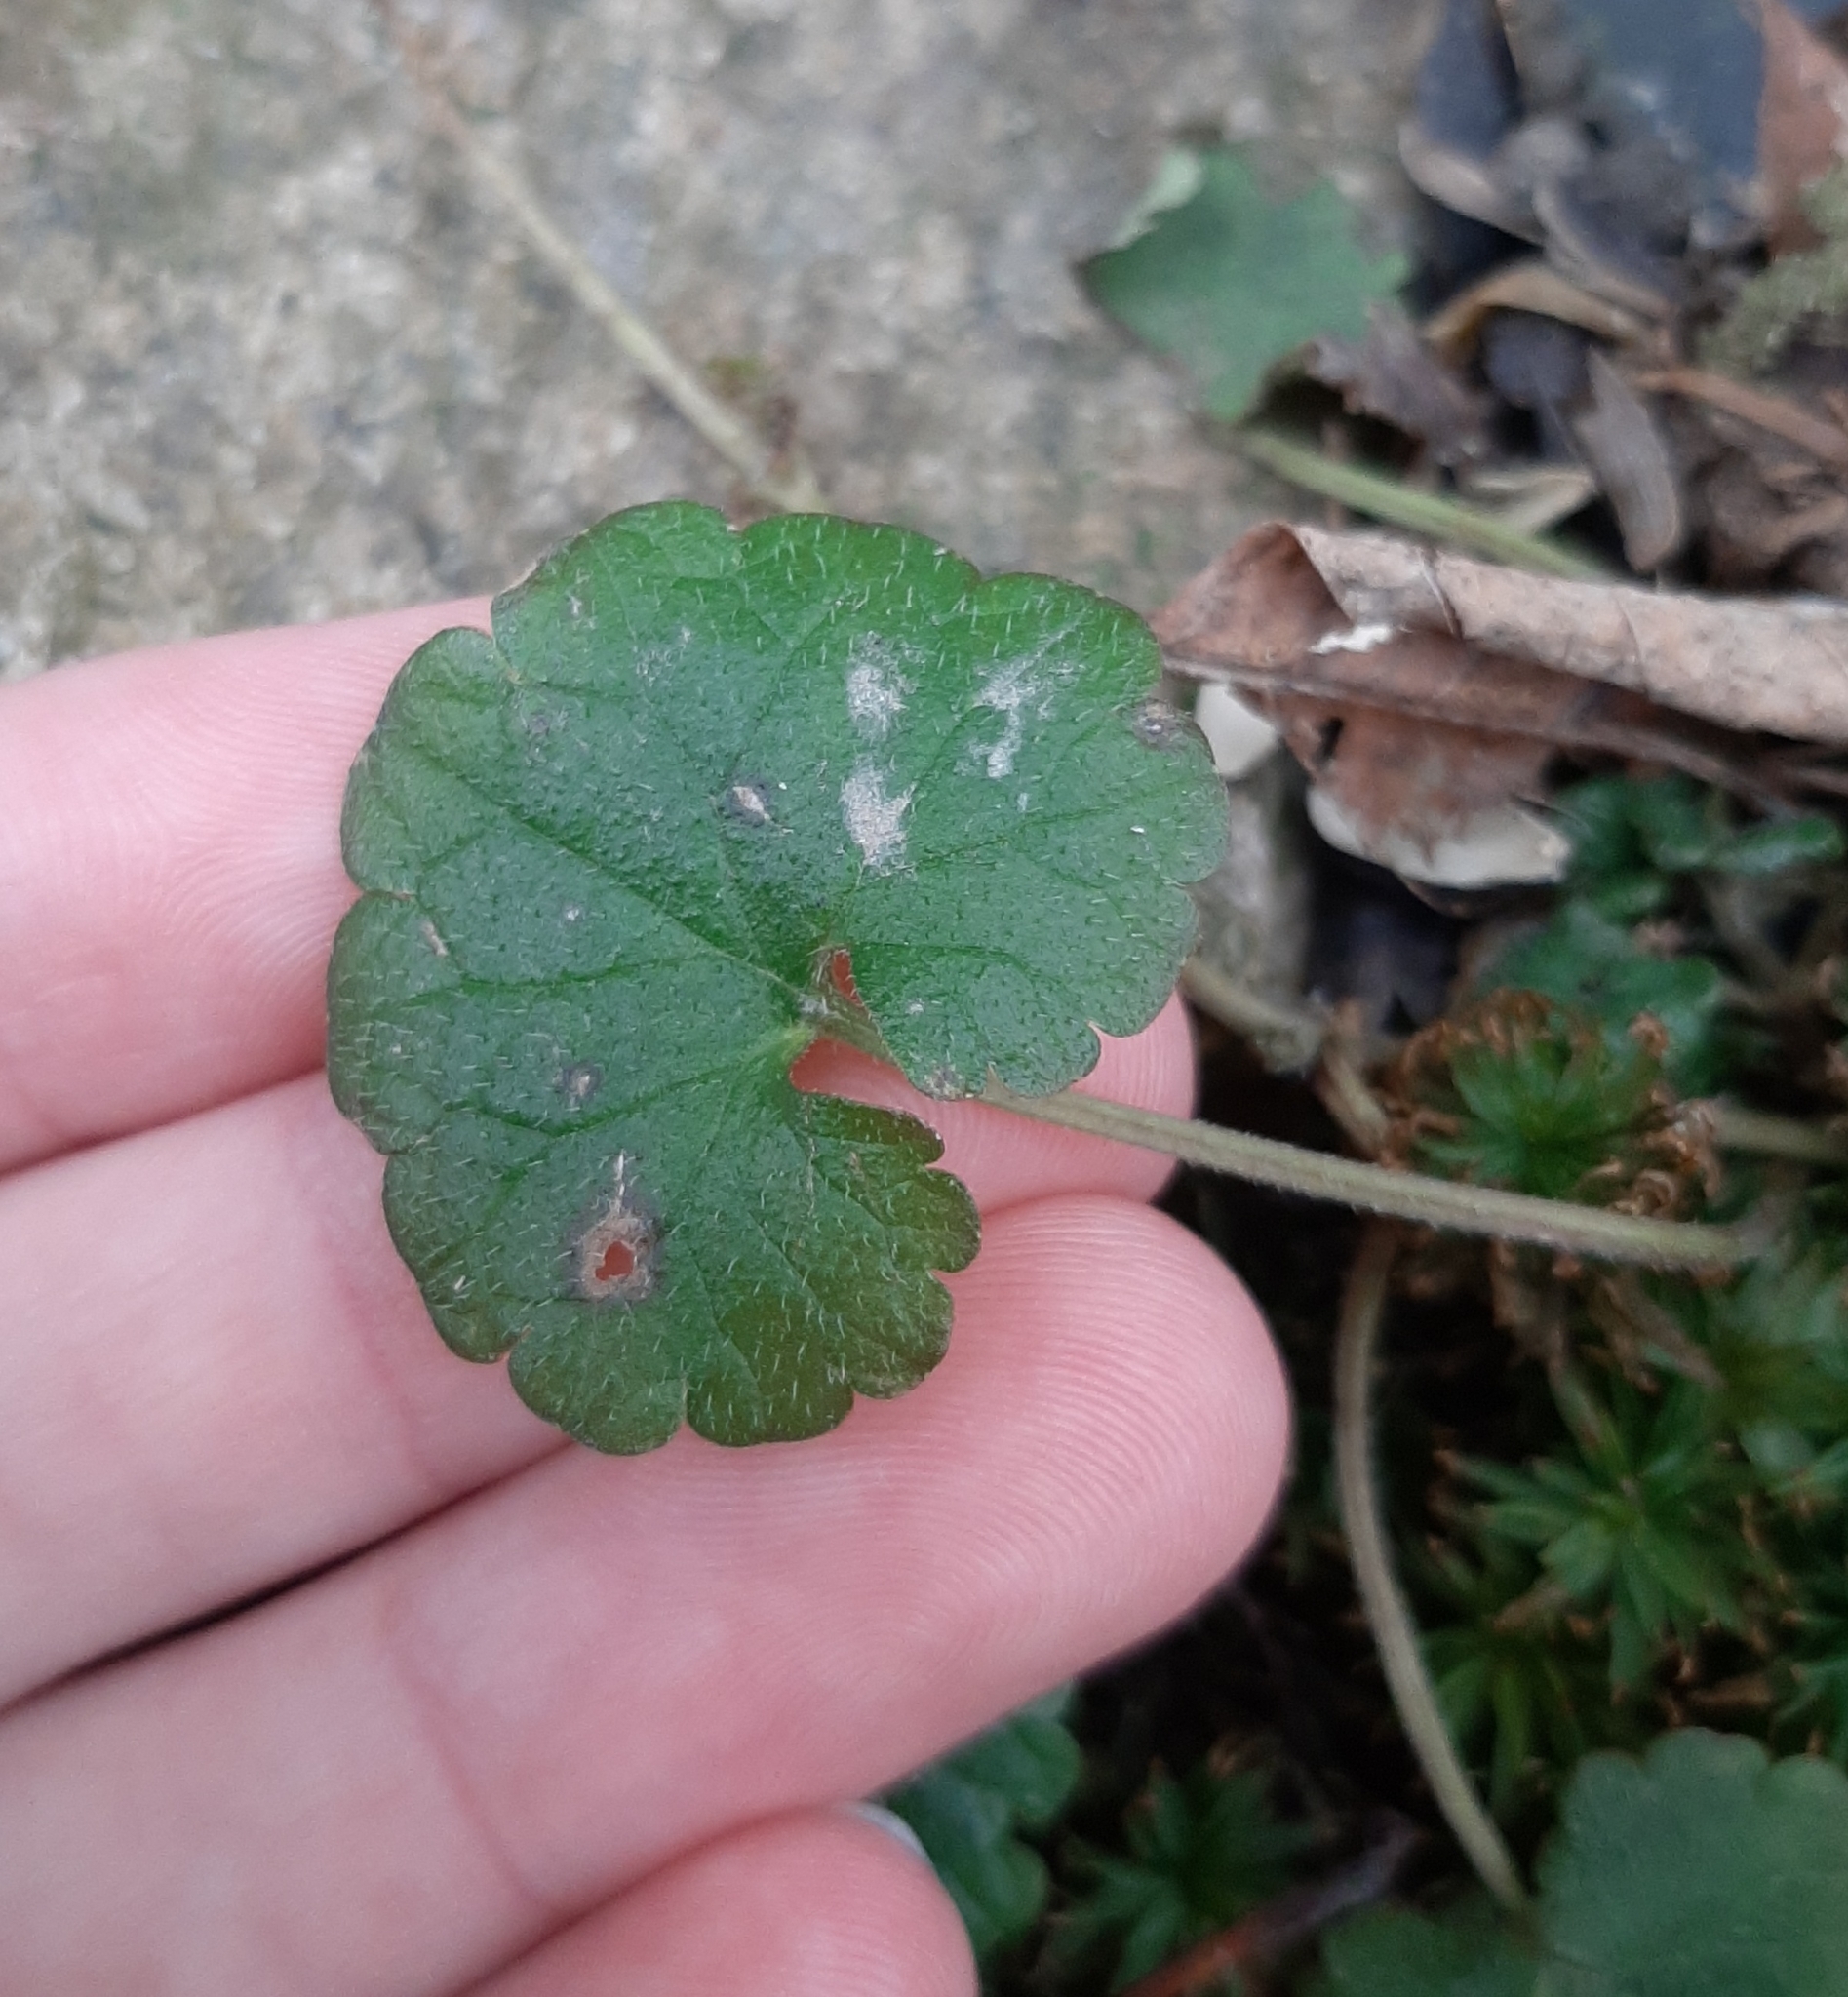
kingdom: Plantae
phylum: Tracheophyta
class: Magnoliopsida
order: Lamiales
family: Lamiaceae
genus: Glechoma
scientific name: Glechoma hederacea
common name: Ground ivy
